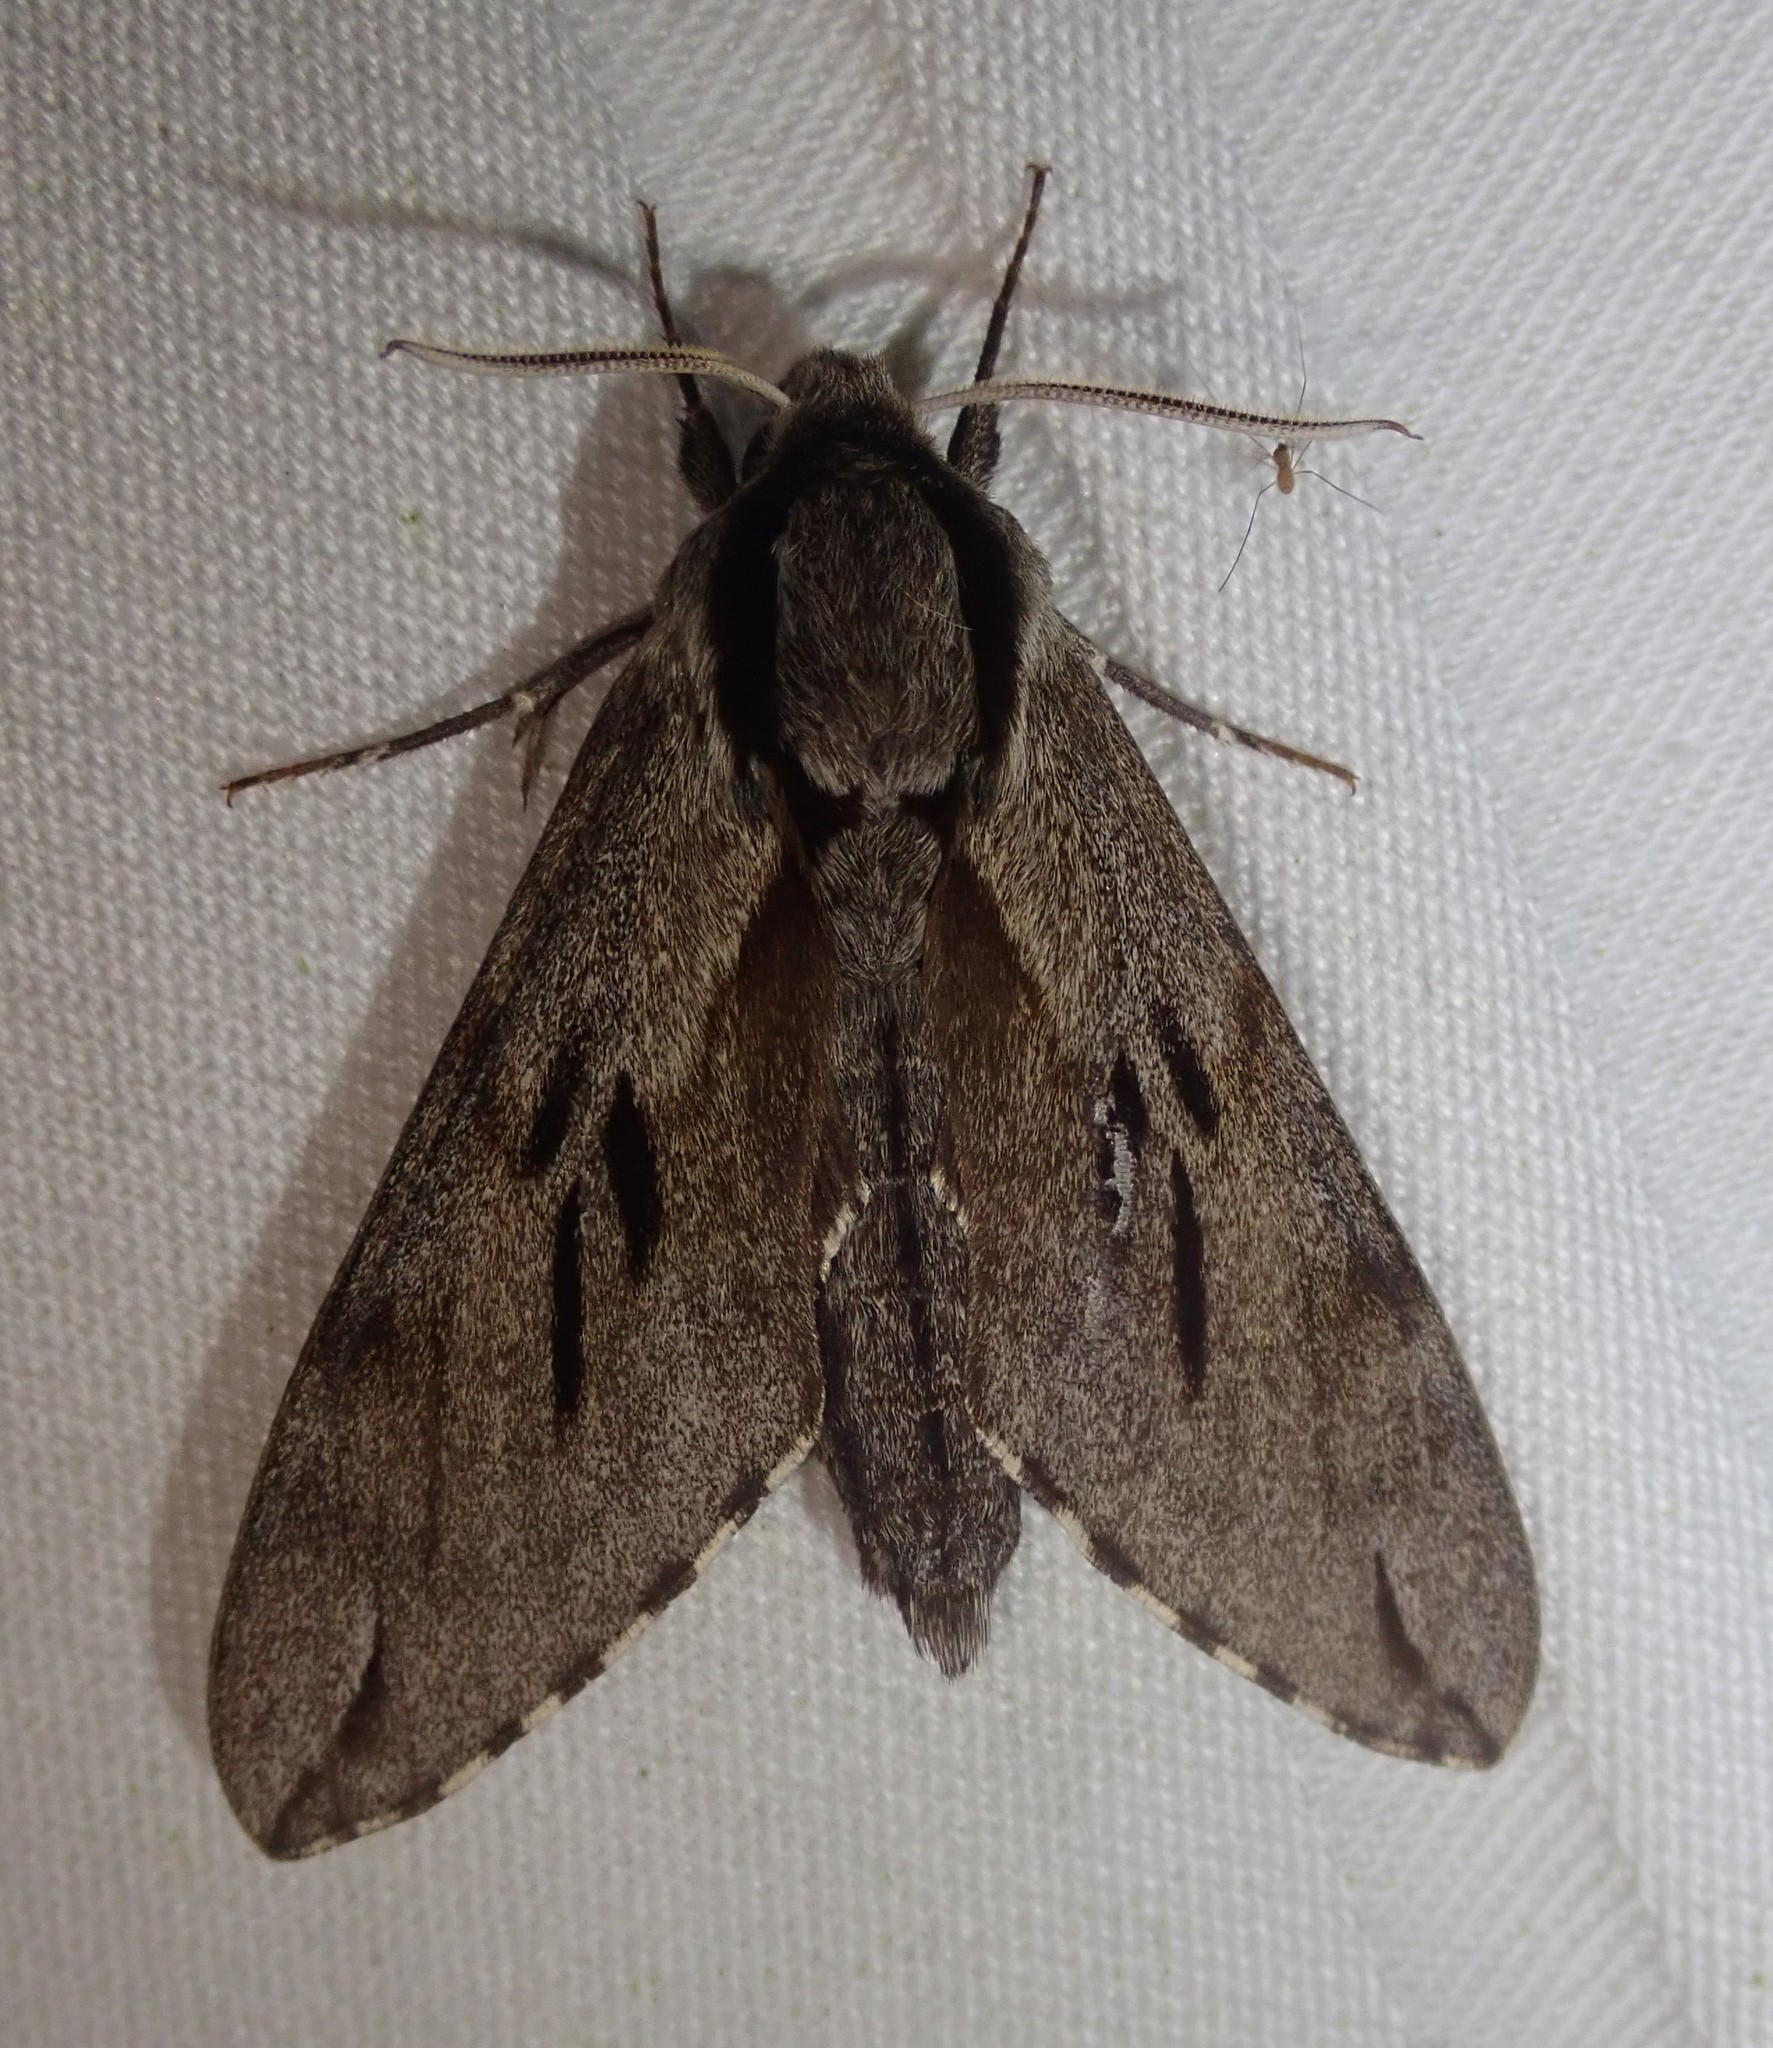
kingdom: Animalia
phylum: Arthropoda
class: Insecta
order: Lepidoptera
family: Sphingidae
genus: Sphinx
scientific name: Sphinx pinastri
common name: Pine hawk-moth
